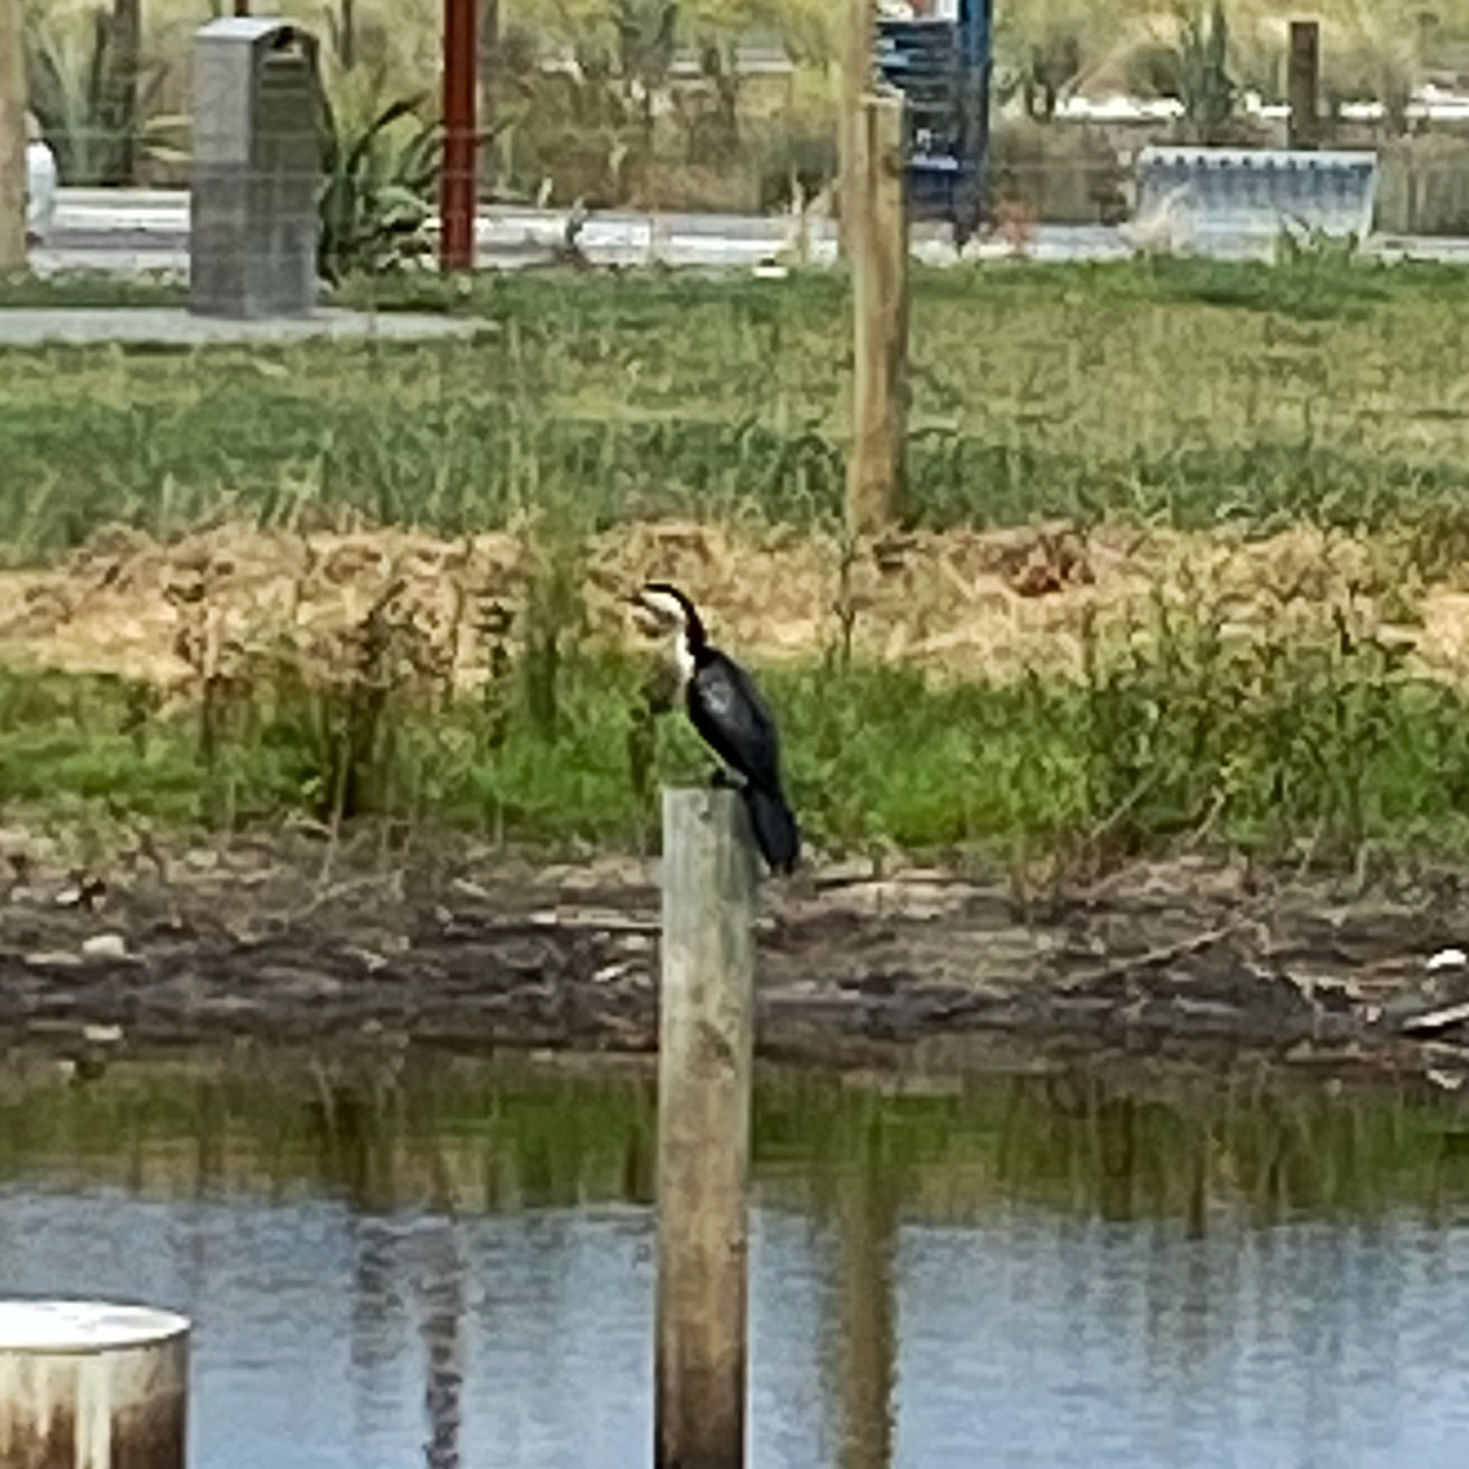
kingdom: Animalia
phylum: Chordata
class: Aves
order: Suliformes
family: Phalacrocoracidae
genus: Microcarbo
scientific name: Microcarbo melanoleucos
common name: Little pied cormorant
